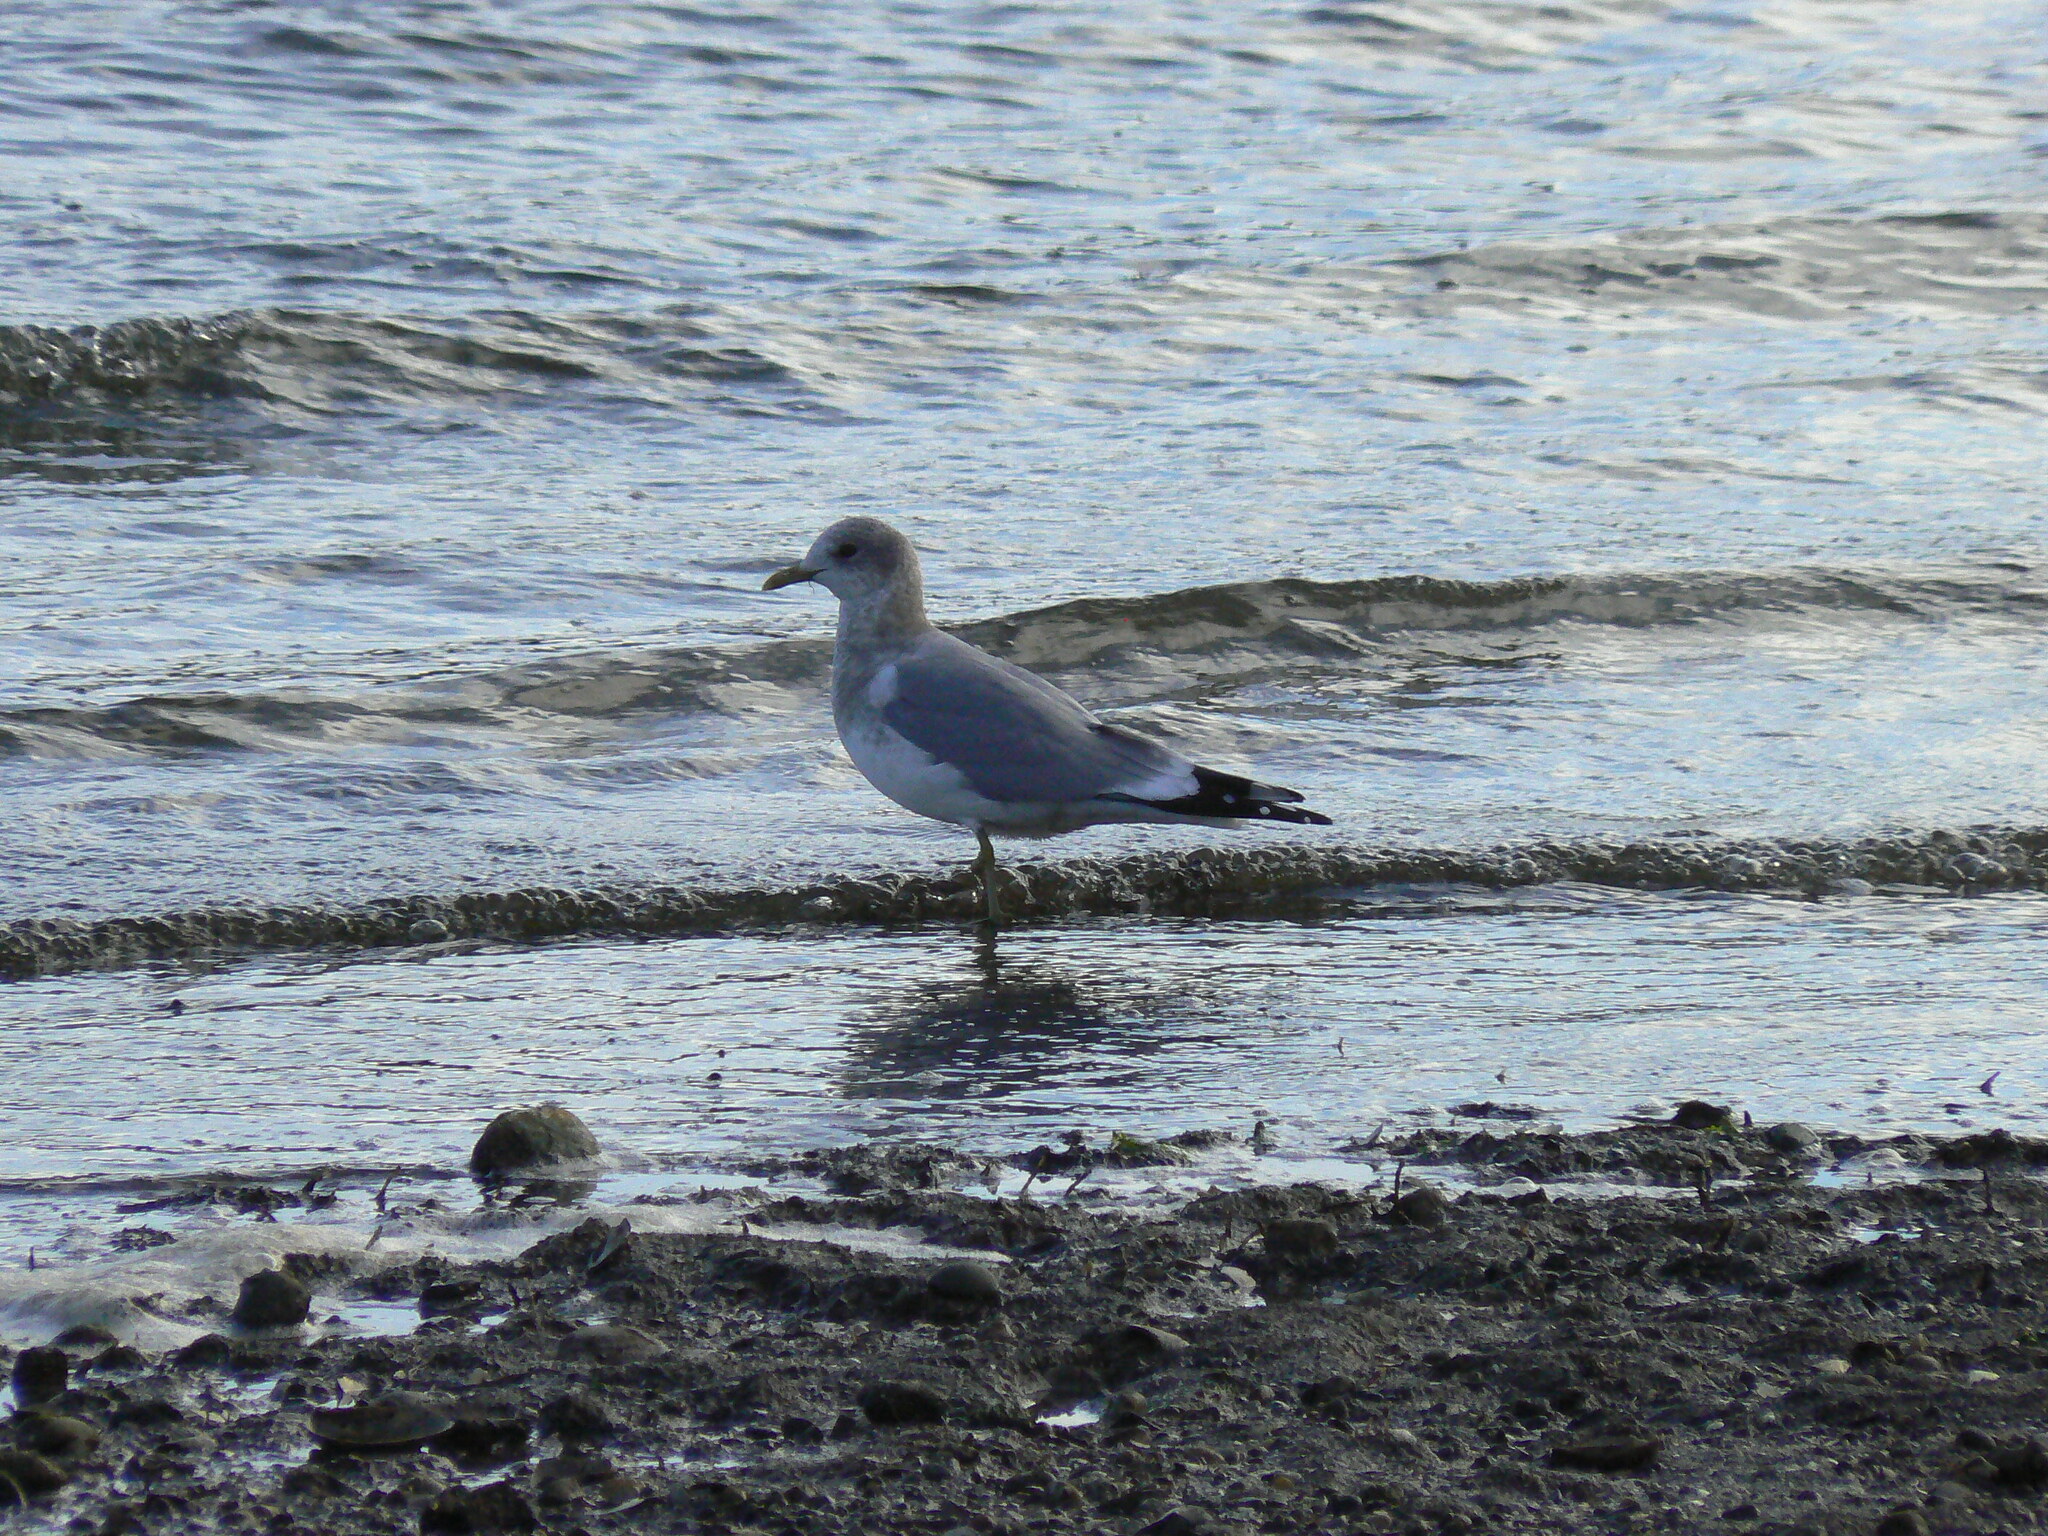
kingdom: Animalia
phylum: Chordata
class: Aves
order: Charadriiformes
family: Laridae
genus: Larus
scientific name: Larus brachyrhynchus
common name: Short-billed gull
